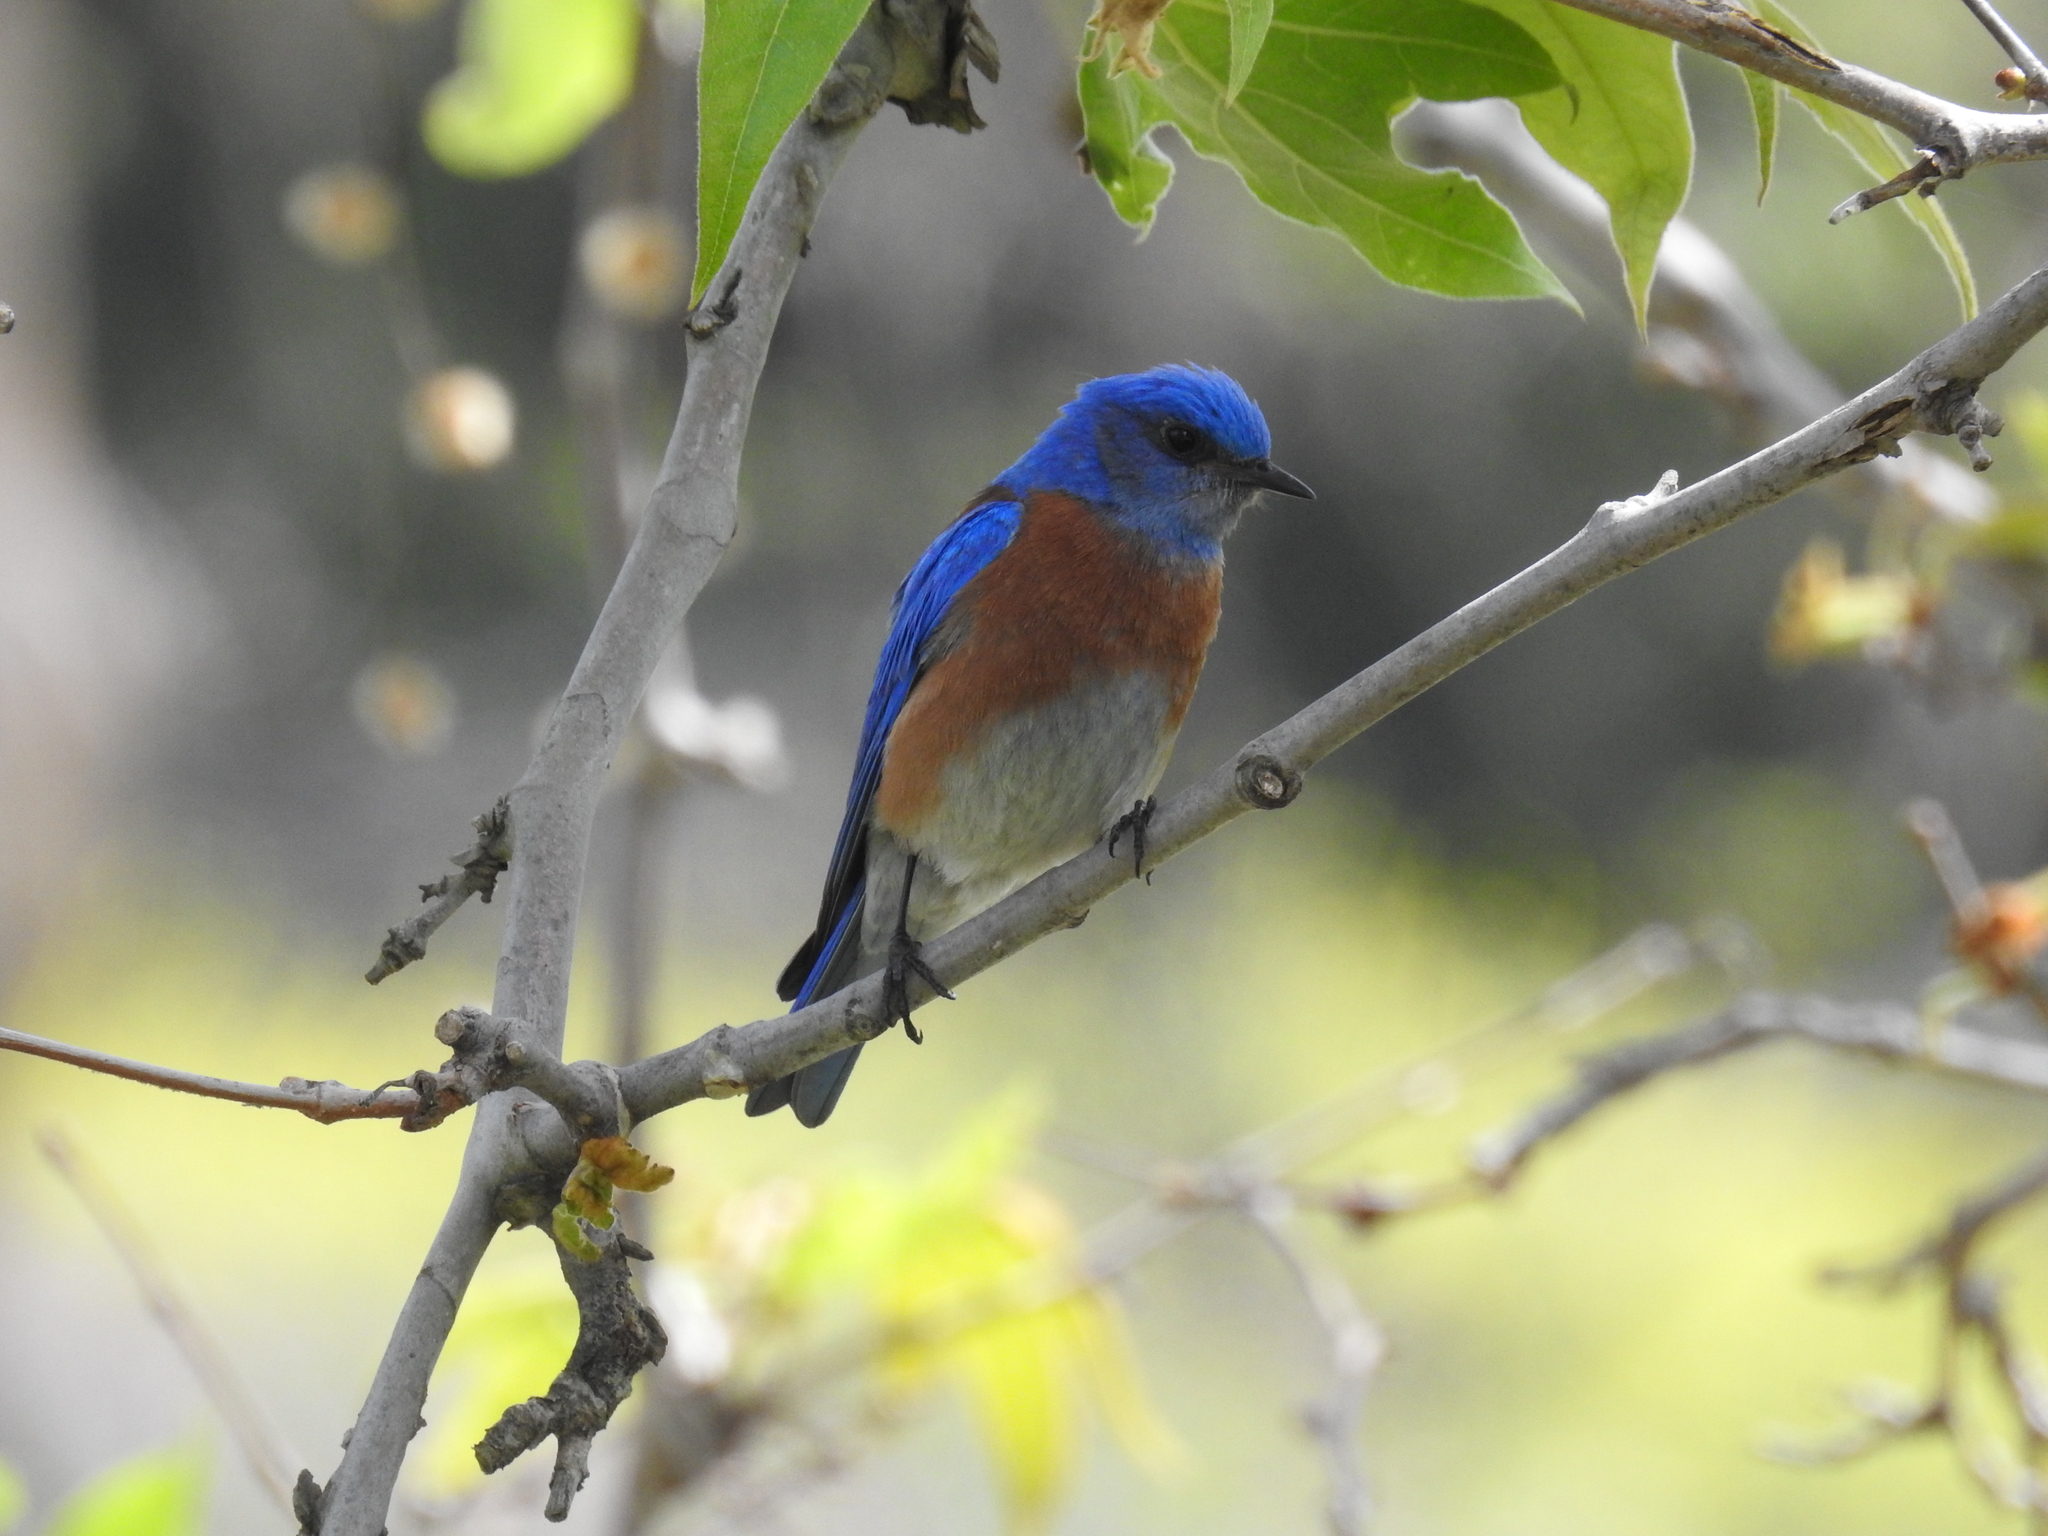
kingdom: Animalia
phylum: Chordata
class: Aves
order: Passeriformes
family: Turdidae
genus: Sialia
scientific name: Sialia mexicana
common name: Western bluebird
